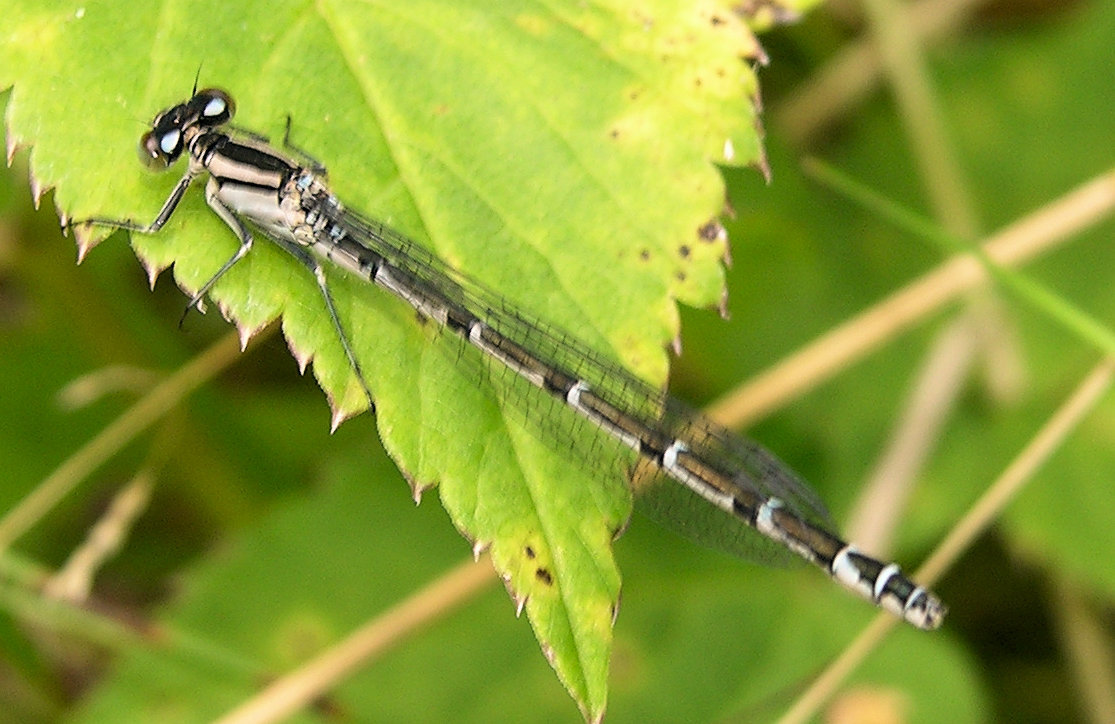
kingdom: Animalia
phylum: Arthropoda
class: Insecta
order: Odonata
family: Coenagrionidae
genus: Enallagma
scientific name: Enallagma cyathigerum
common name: Common blue damselfly
